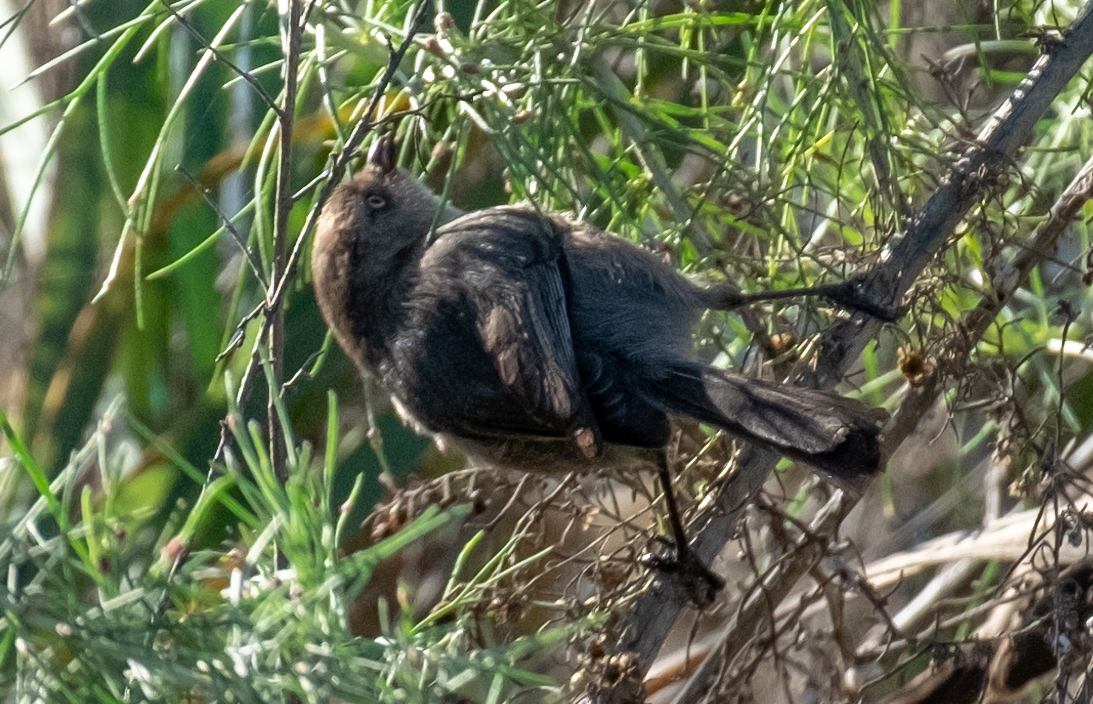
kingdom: Animalia
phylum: Chordata
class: Aves
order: Passeriformes
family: Aegithalidae
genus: Psaltriparus
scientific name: Psaltriparus minimus
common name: American bushtit
